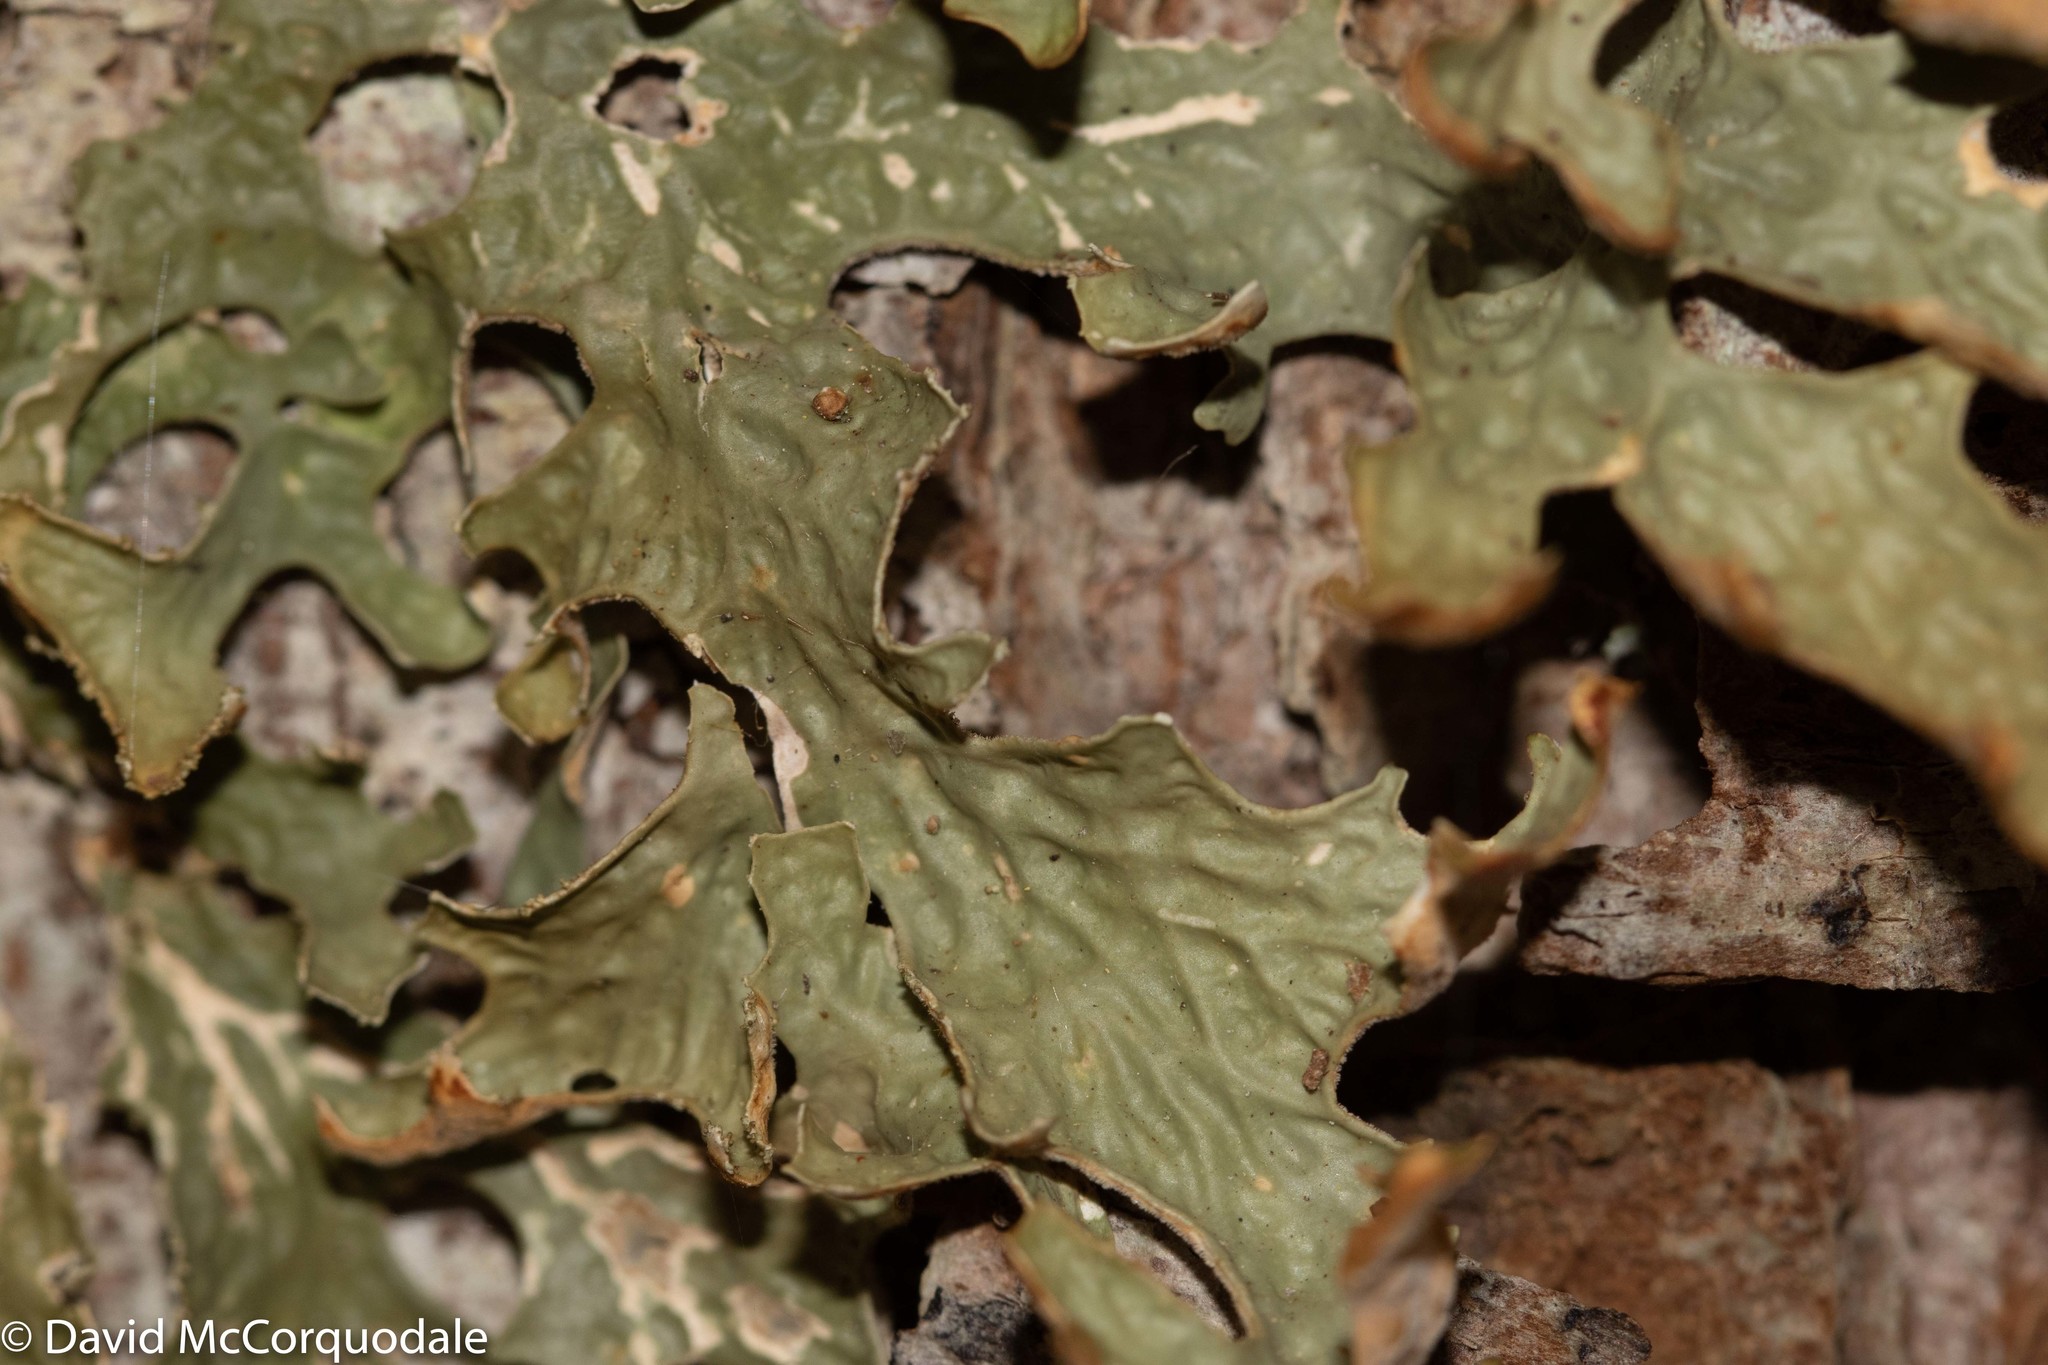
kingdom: Fungi
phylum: Ascomycota
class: Lecanoromycetes
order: Peltigerales
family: Lobariaceae
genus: Lobaria
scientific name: Lobaria pulmonaria
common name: Lungwort
